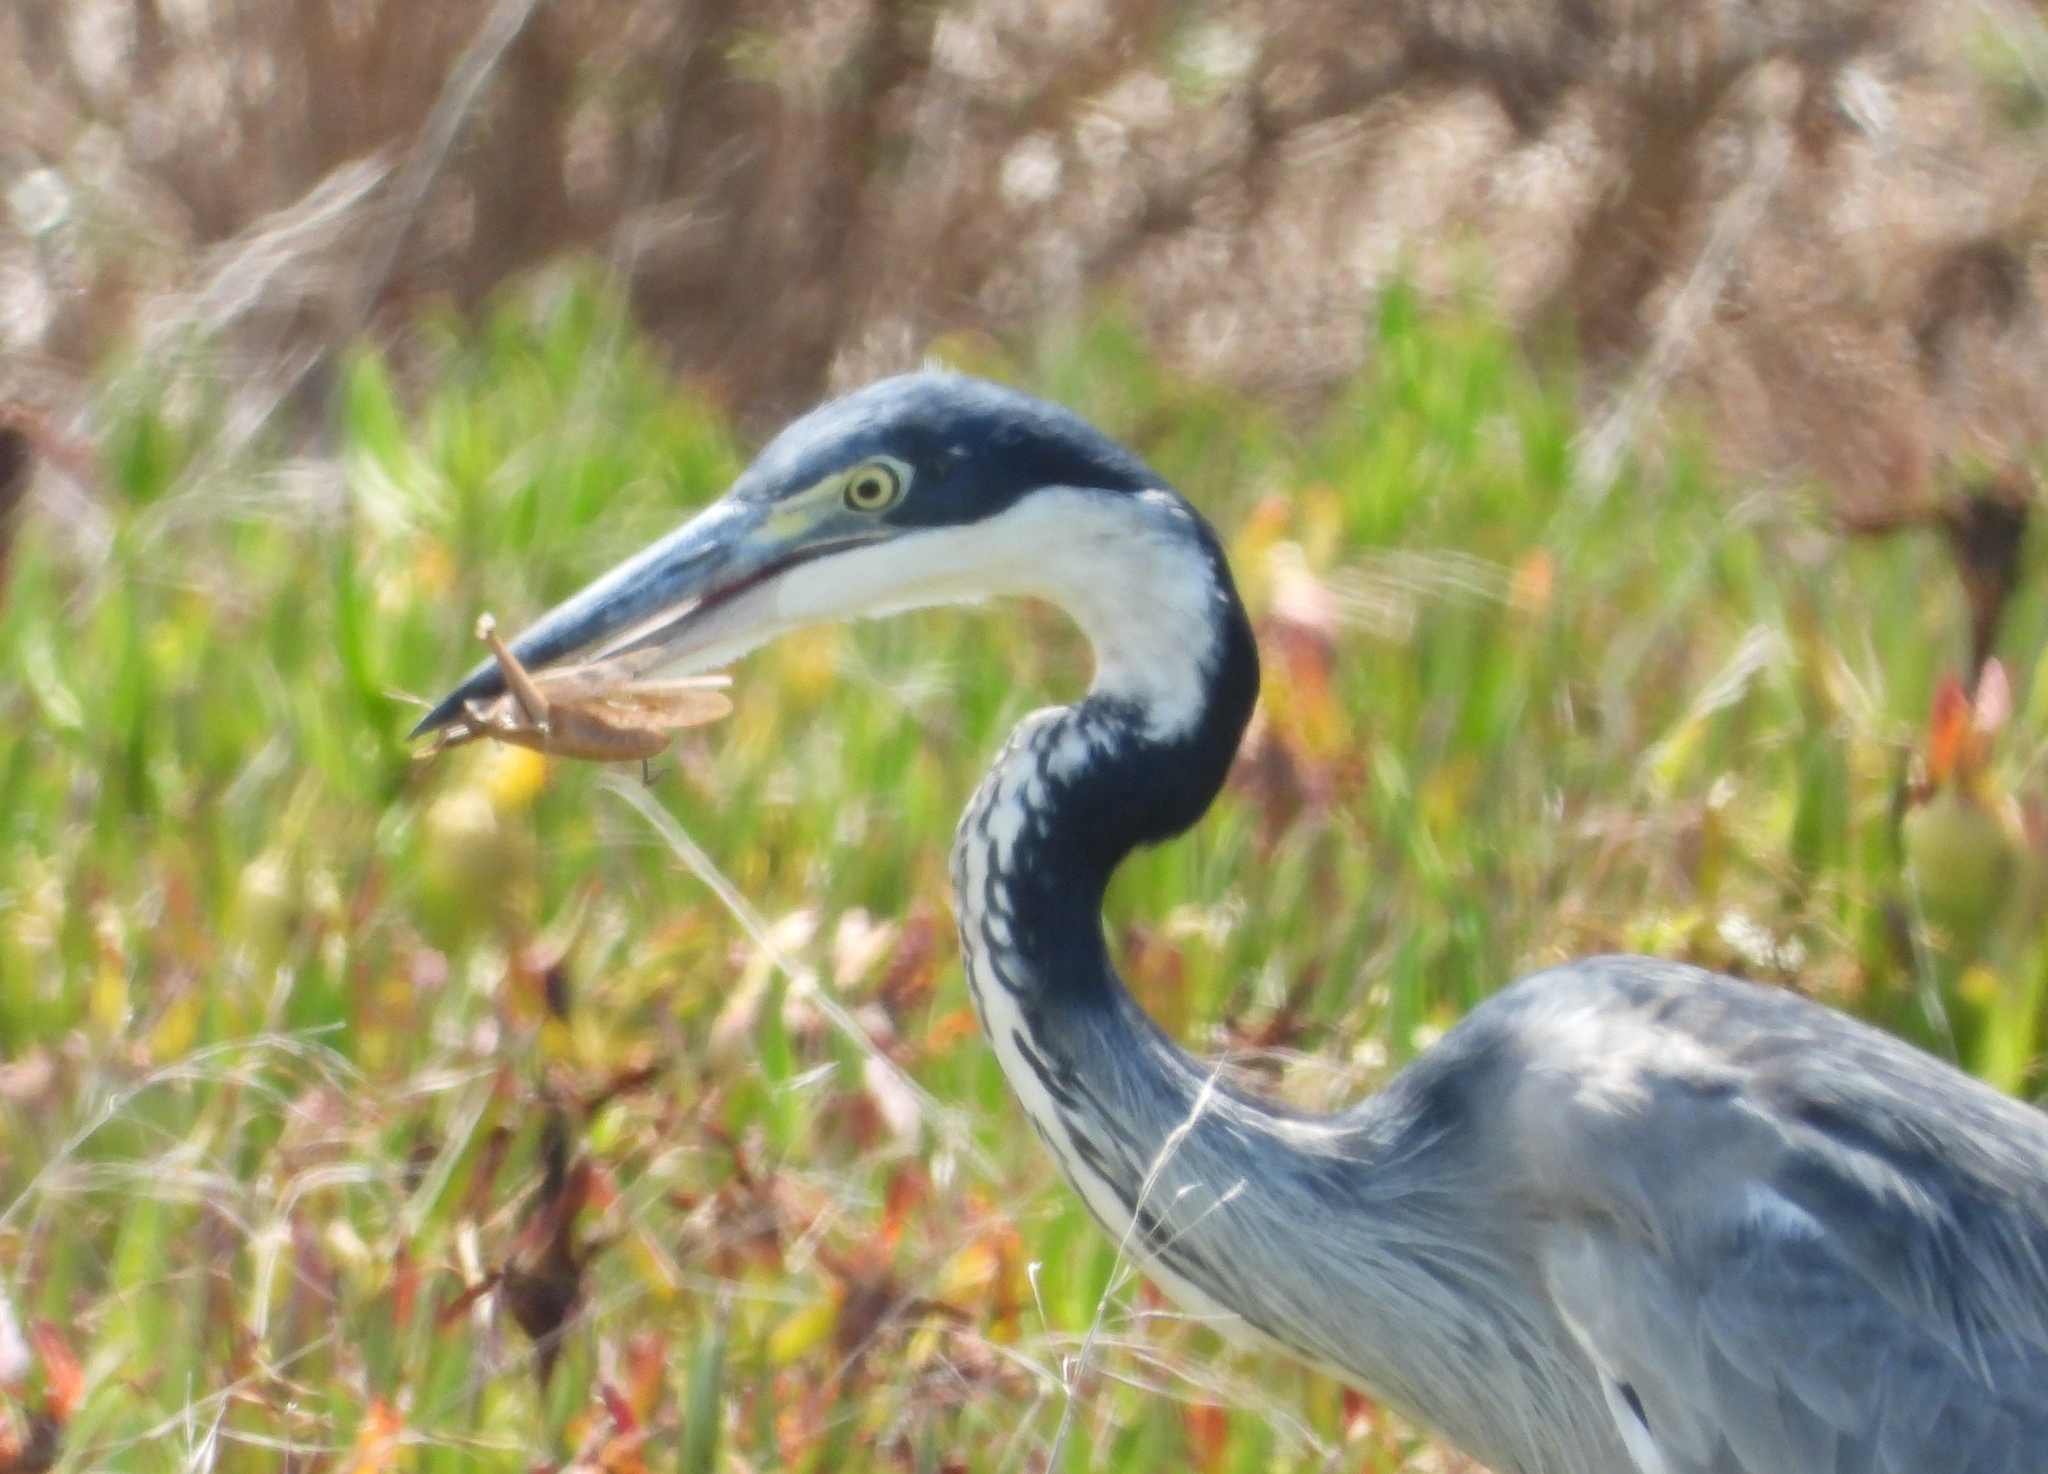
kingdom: Animalia
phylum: Chordata
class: Aves
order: Pelecaniformes
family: Ardeidae
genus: Ardea
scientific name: Ardea melanocephala
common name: Black-headed heron
